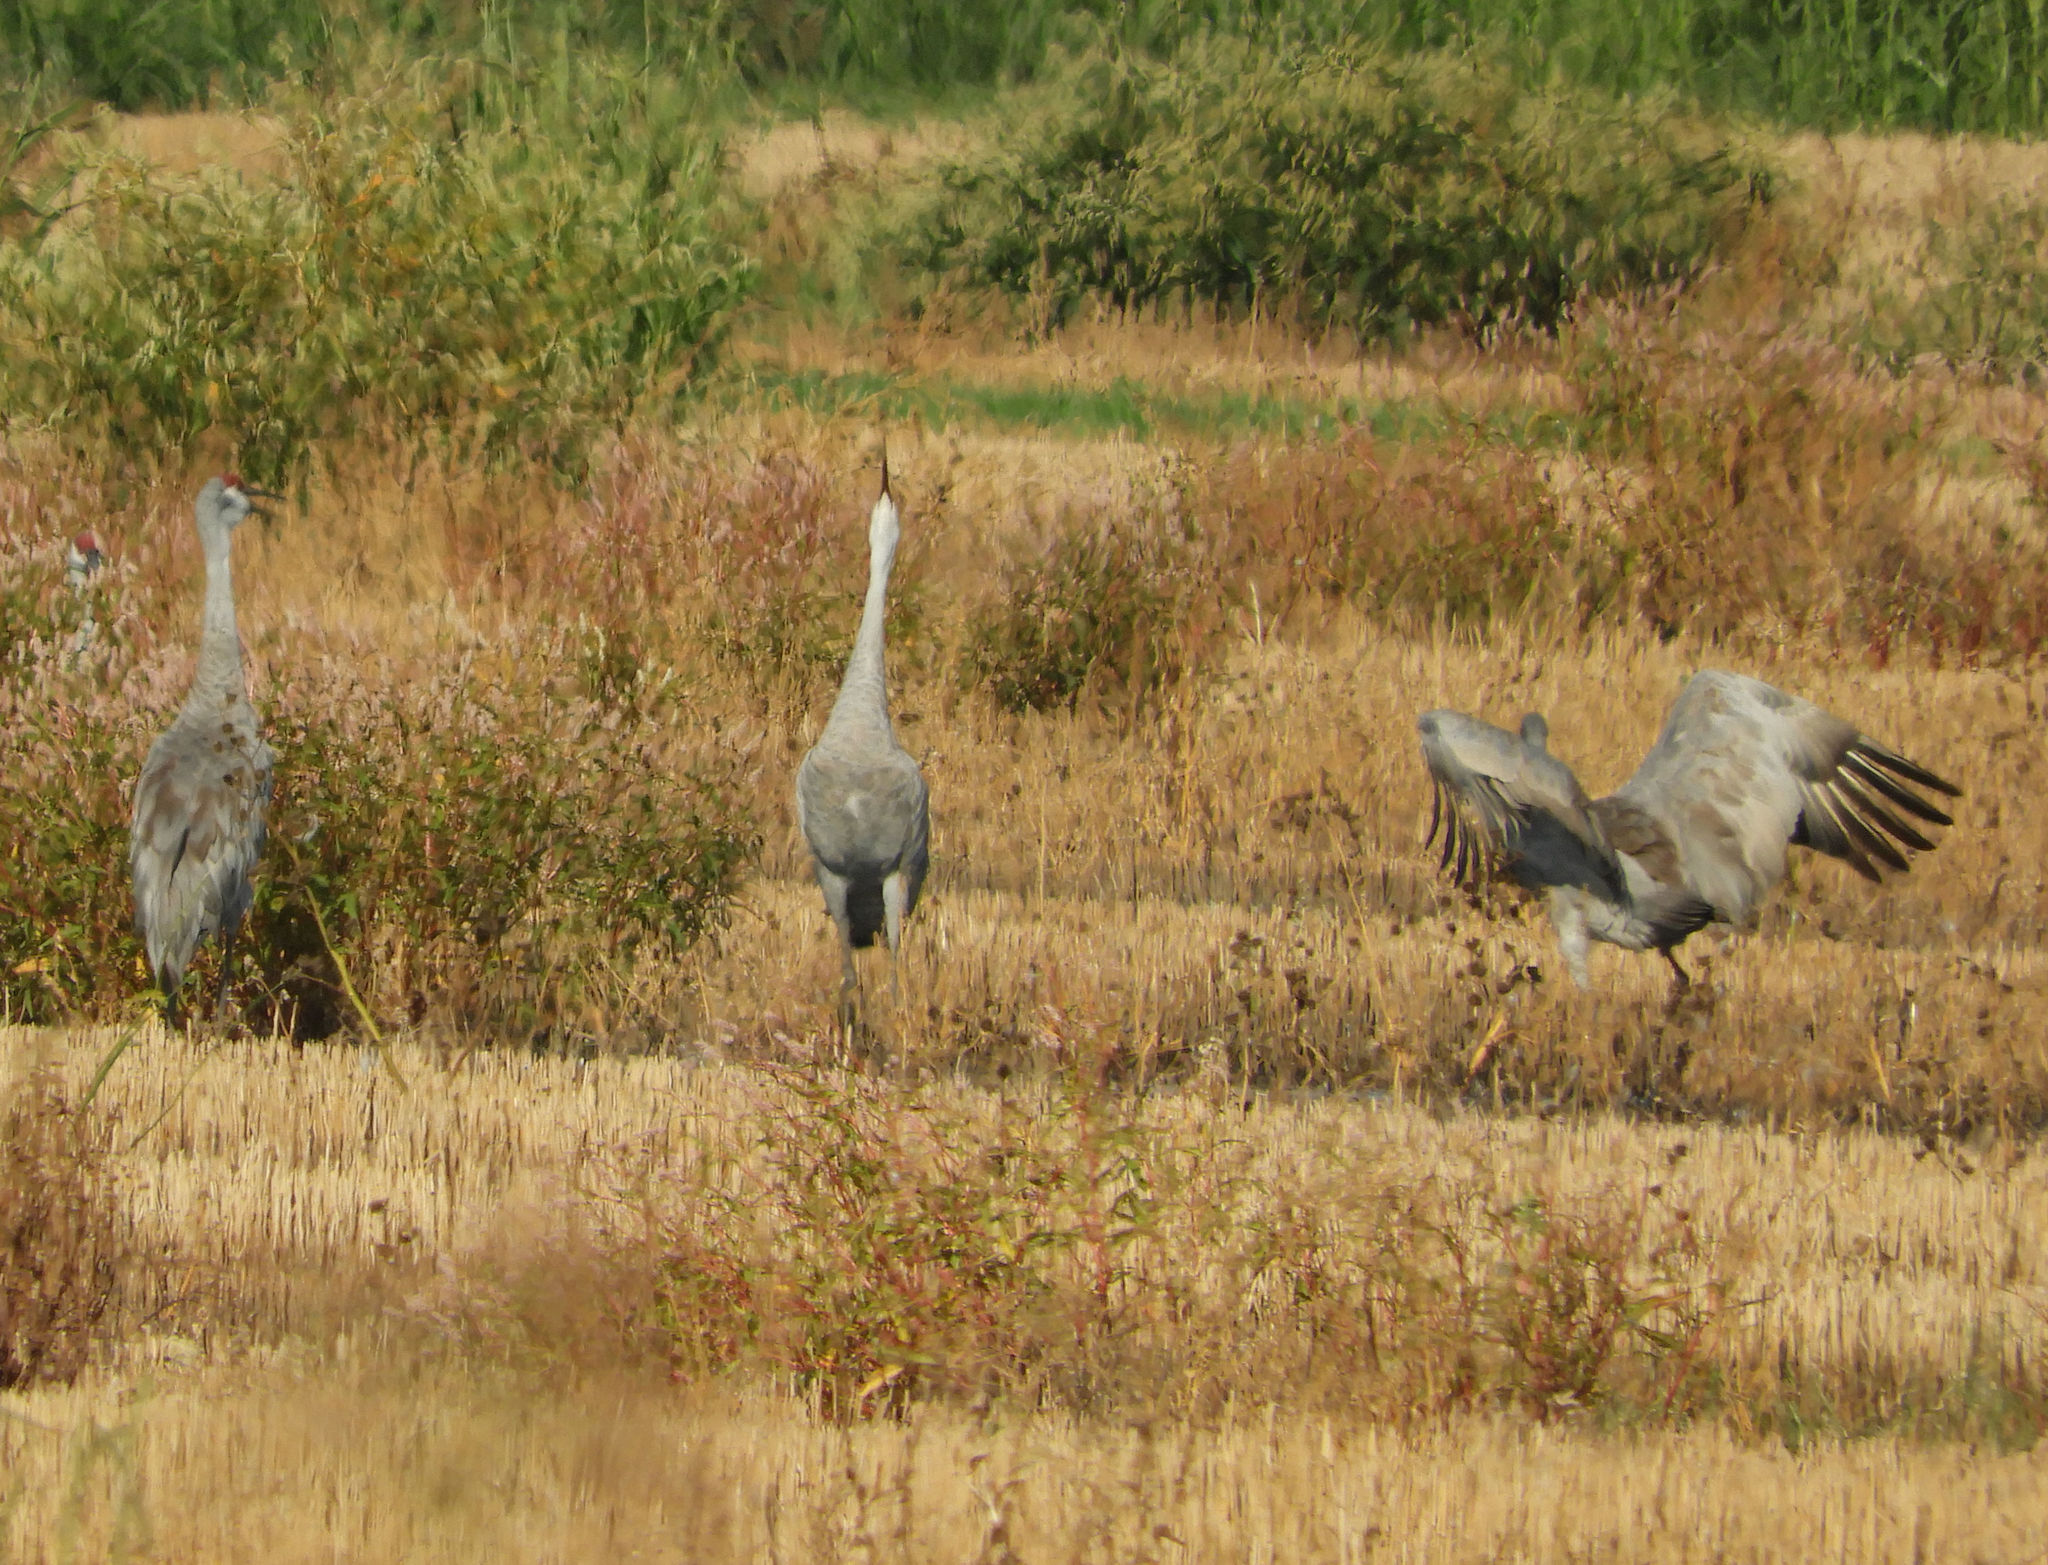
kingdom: Animalia
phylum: Chordata
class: Aves
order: Gruiformes
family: Gruidae
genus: Grus
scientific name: Grus canadensis
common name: Sandhill crane
